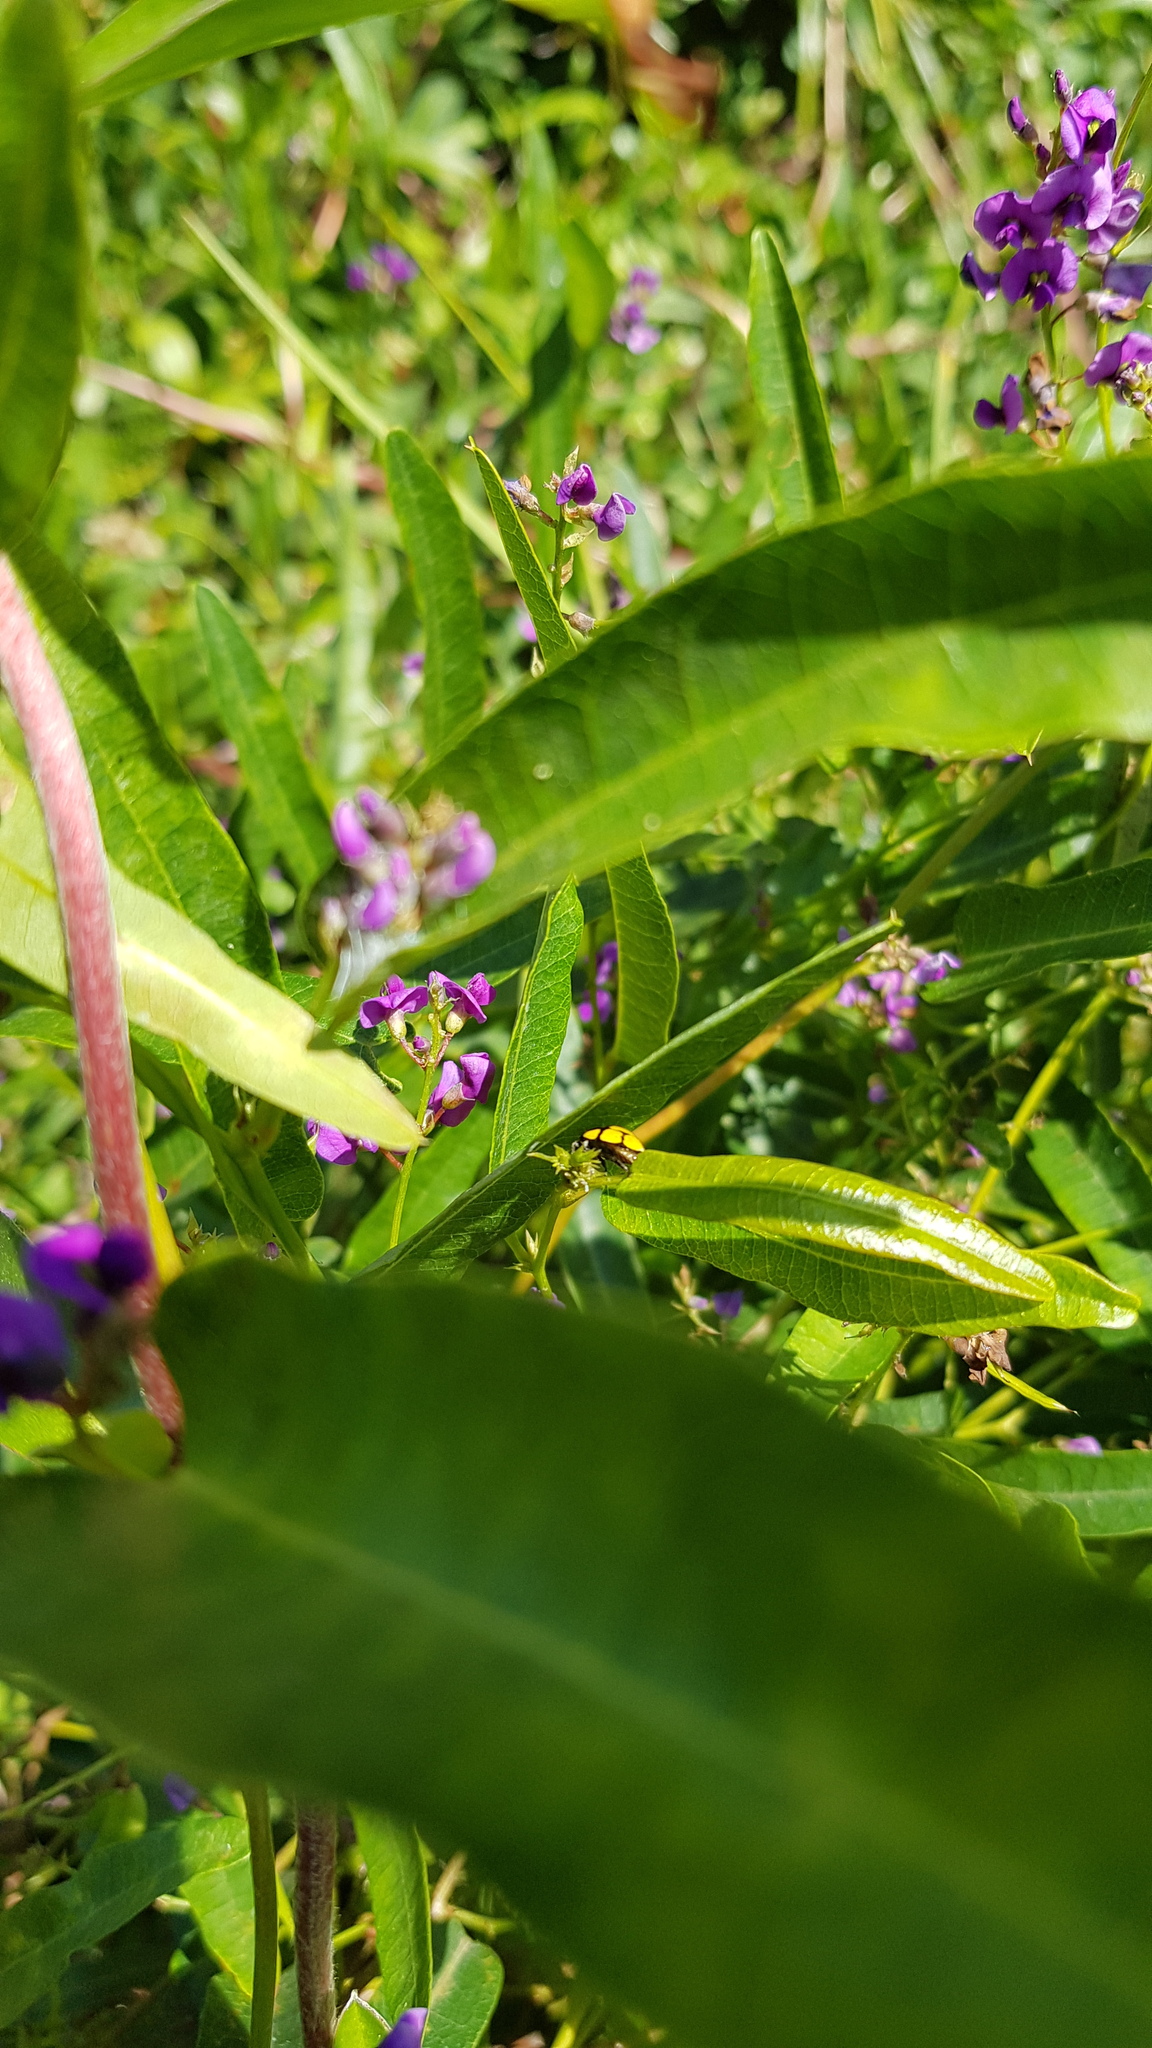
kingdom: Animalia
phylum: Arthropoda
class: Insecta
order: Coleoptera
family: Coccinellidae
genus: Harmonia
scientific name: Harmonia
